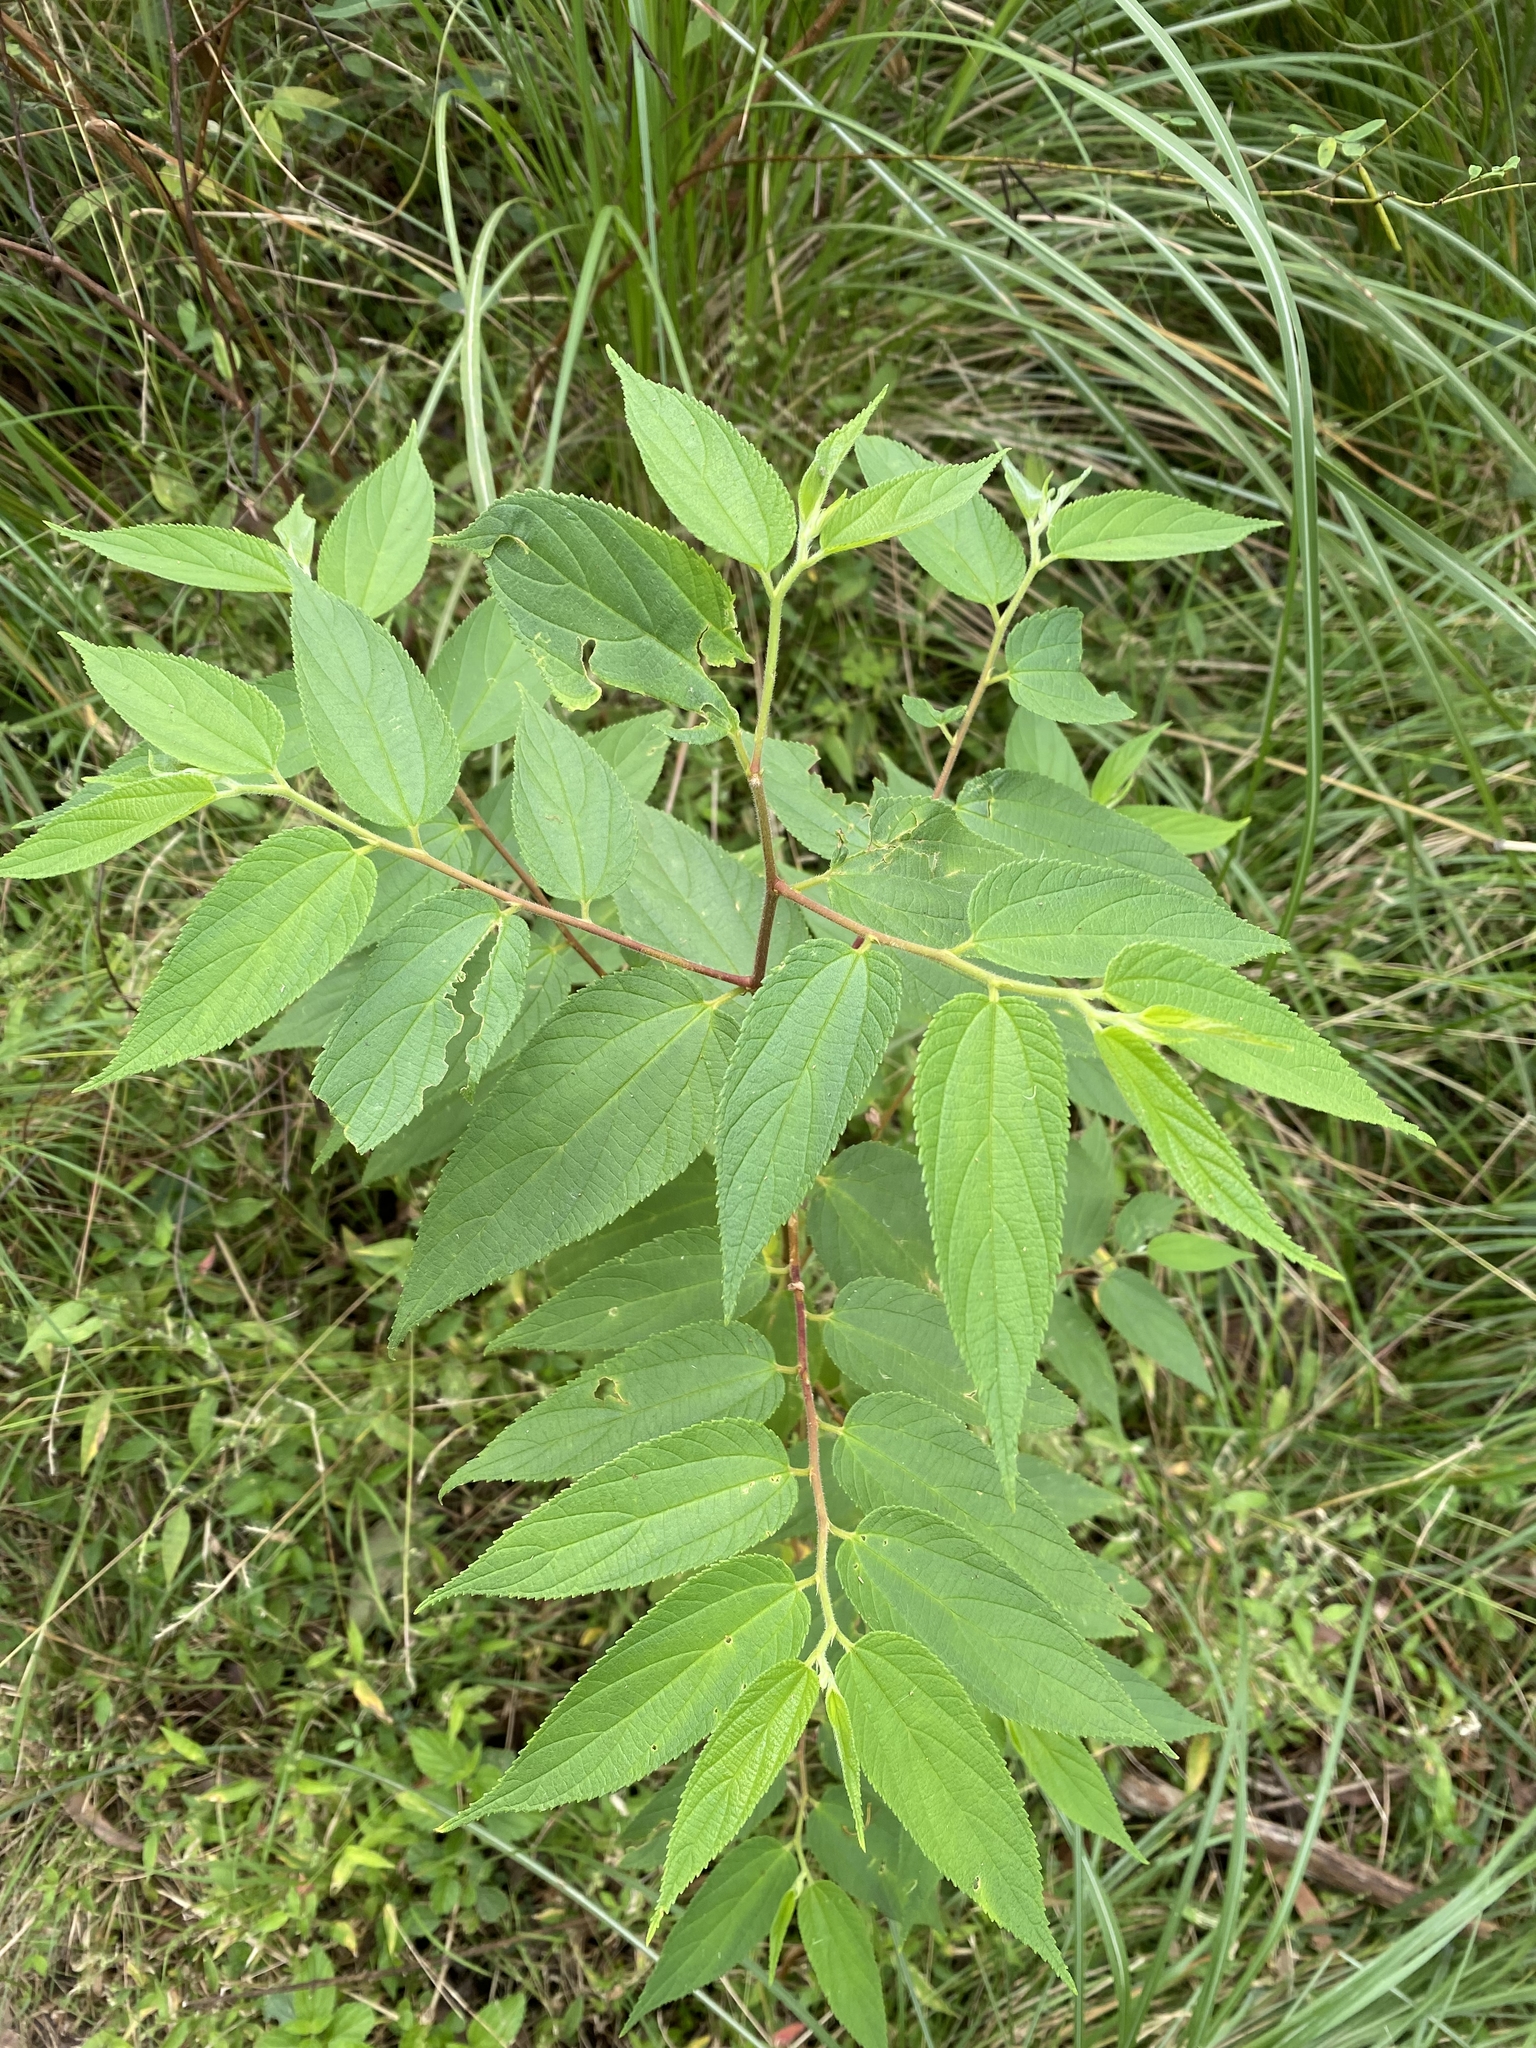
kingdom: Plantae
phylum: Tracheophyta
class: Magnoliopsida
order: Rosales
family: Cannabaceae
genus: Trema
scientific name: Trema tomentosum
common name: Peach-leaf-poisonbush
